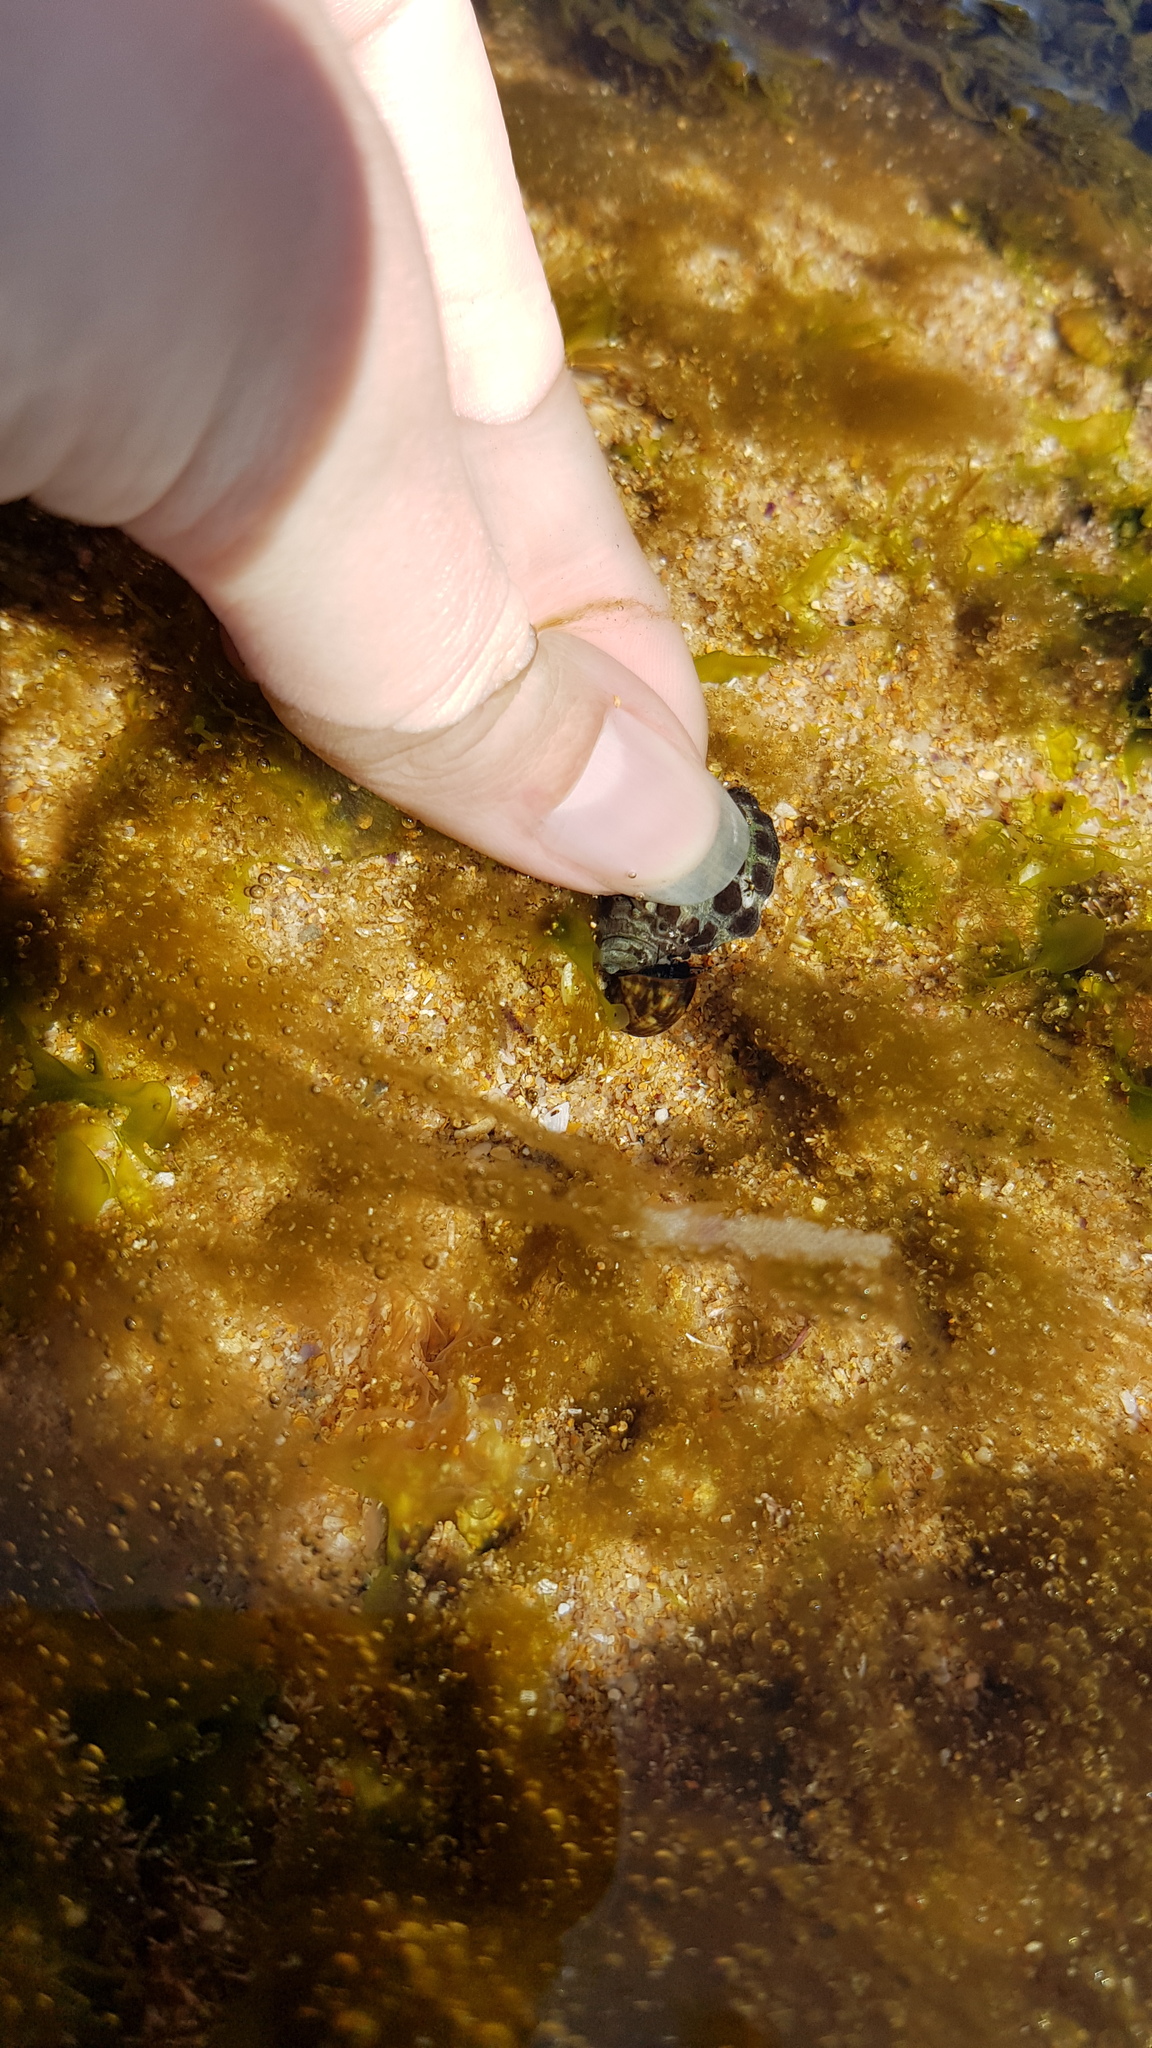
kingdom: Animalia
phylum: Mollusca
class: Gastropoda
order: Trochida
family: Turbinidae
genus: Lunella
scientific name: Lunella undulata
